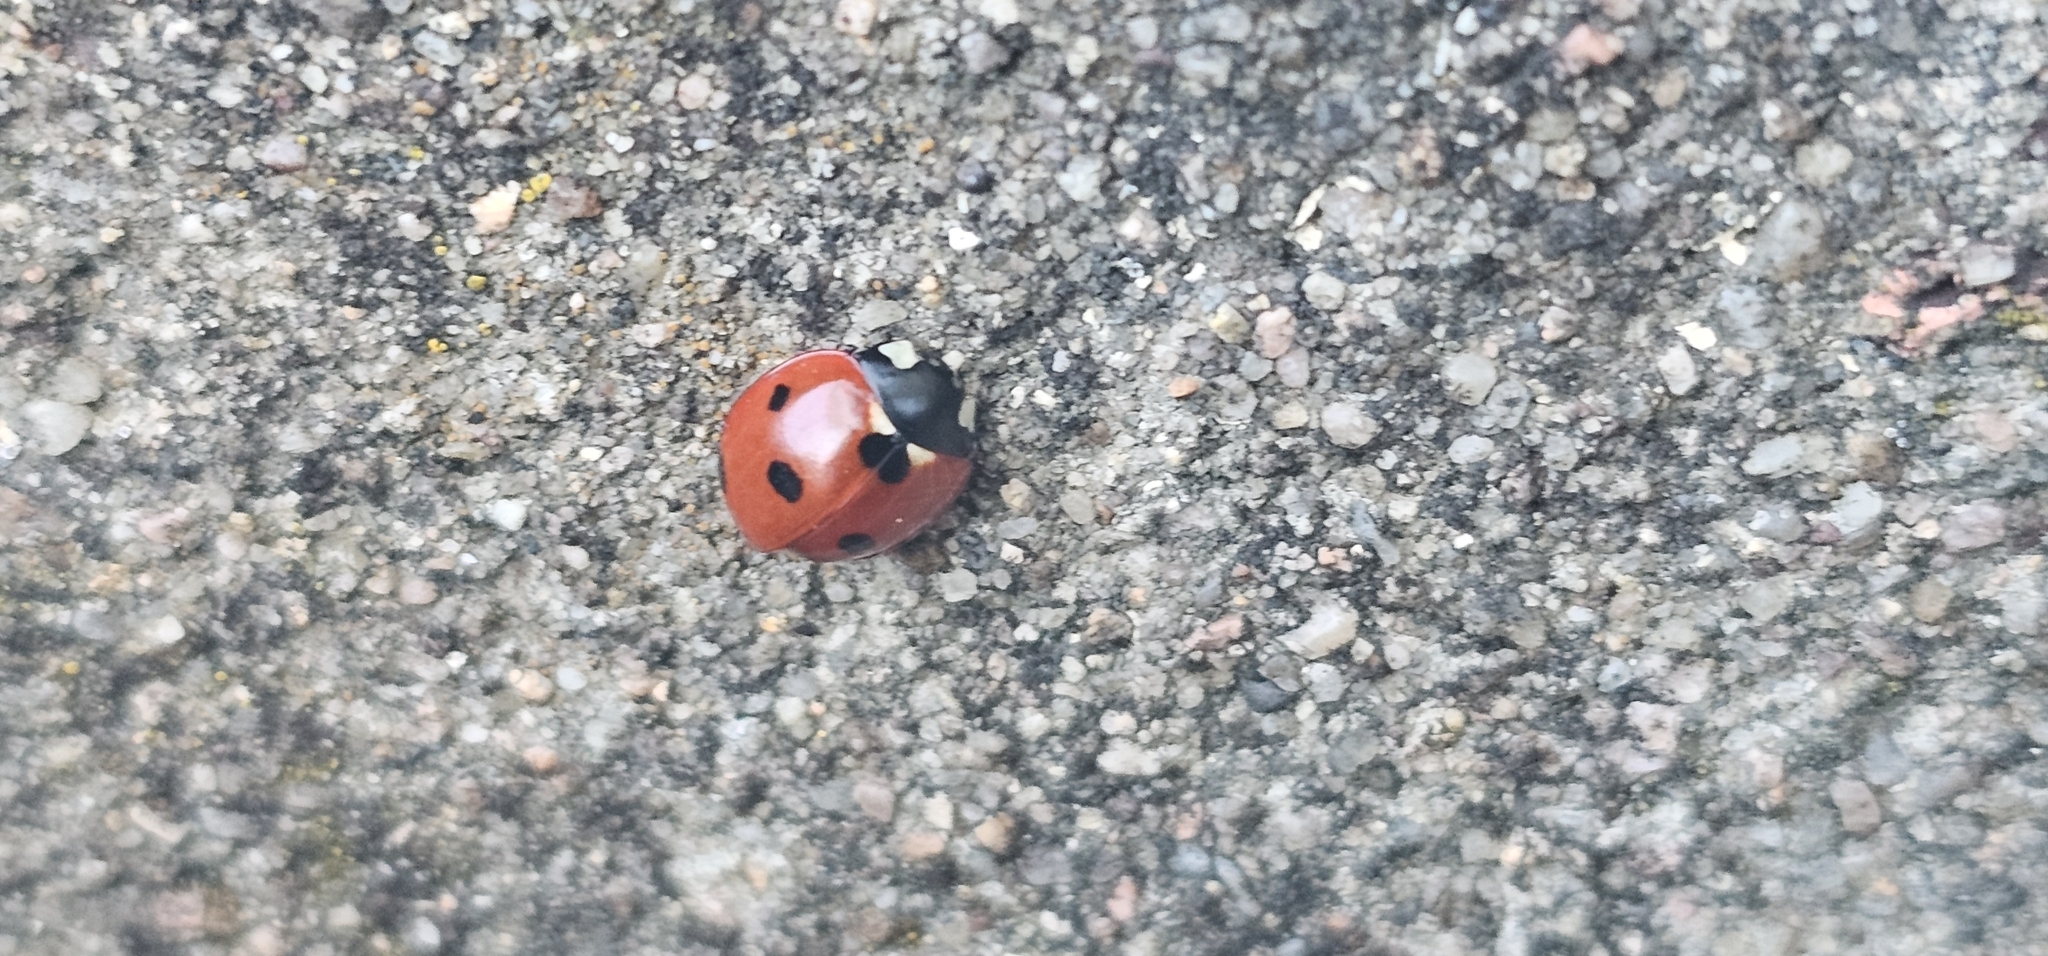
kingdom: Animalia
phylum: Arthropoda
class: Insecta
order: Coleoptera
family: Coccinellidae
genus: Coccinella
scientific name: Coccinella septempunctata
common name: Sevenspotted lady beetle
